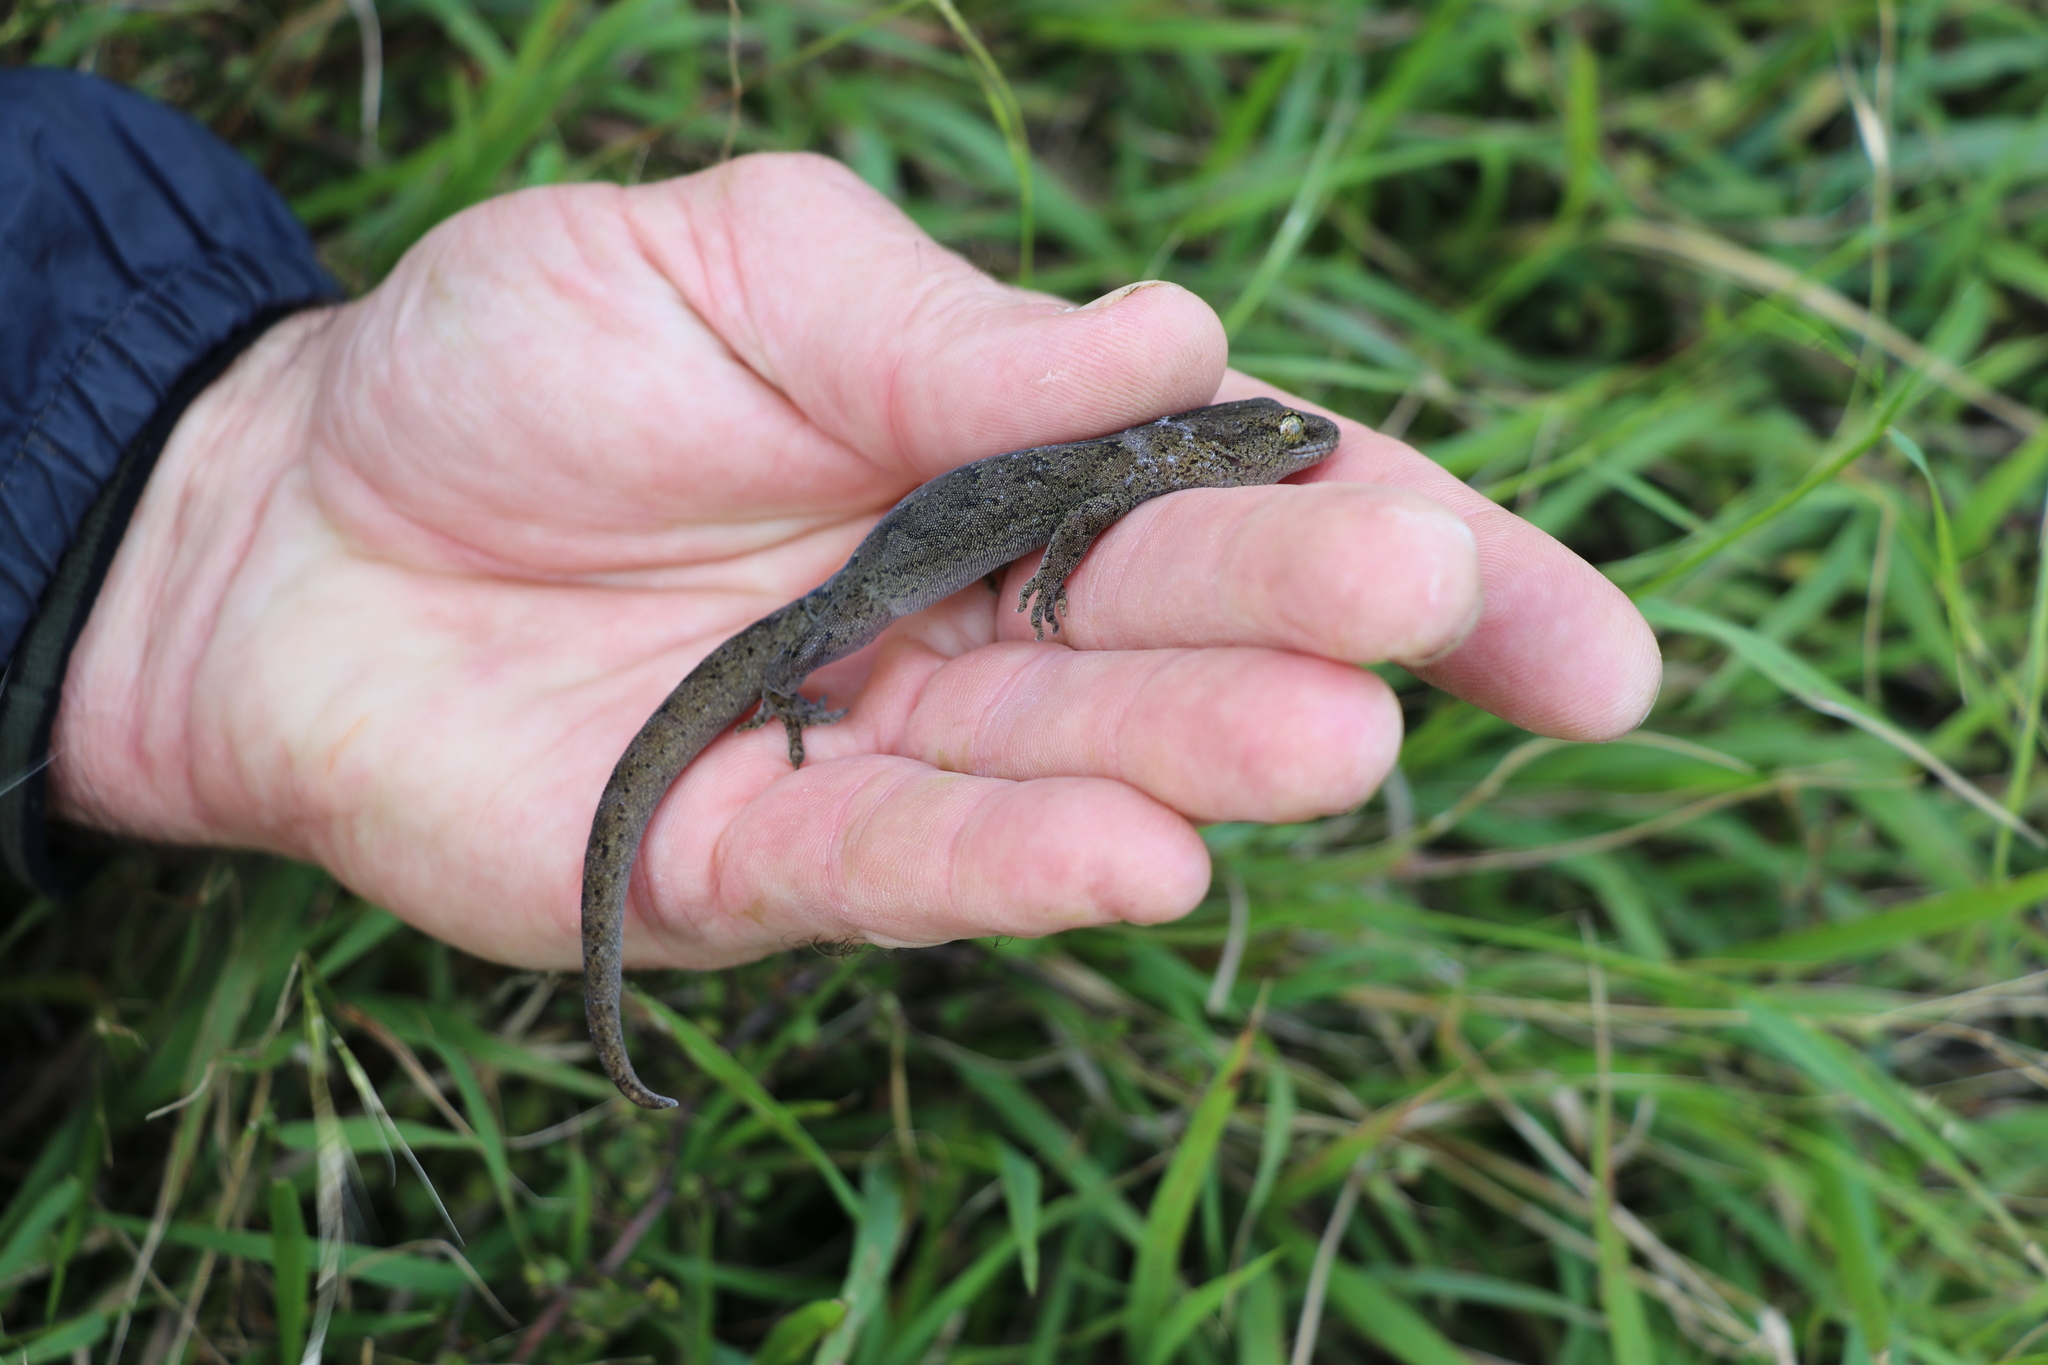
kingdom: Animalia
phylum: Chordata
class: Squamata
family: Diplodactylidae
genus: Woodworthia
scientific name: Woodworthia maculata
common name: Raukawa gecko
